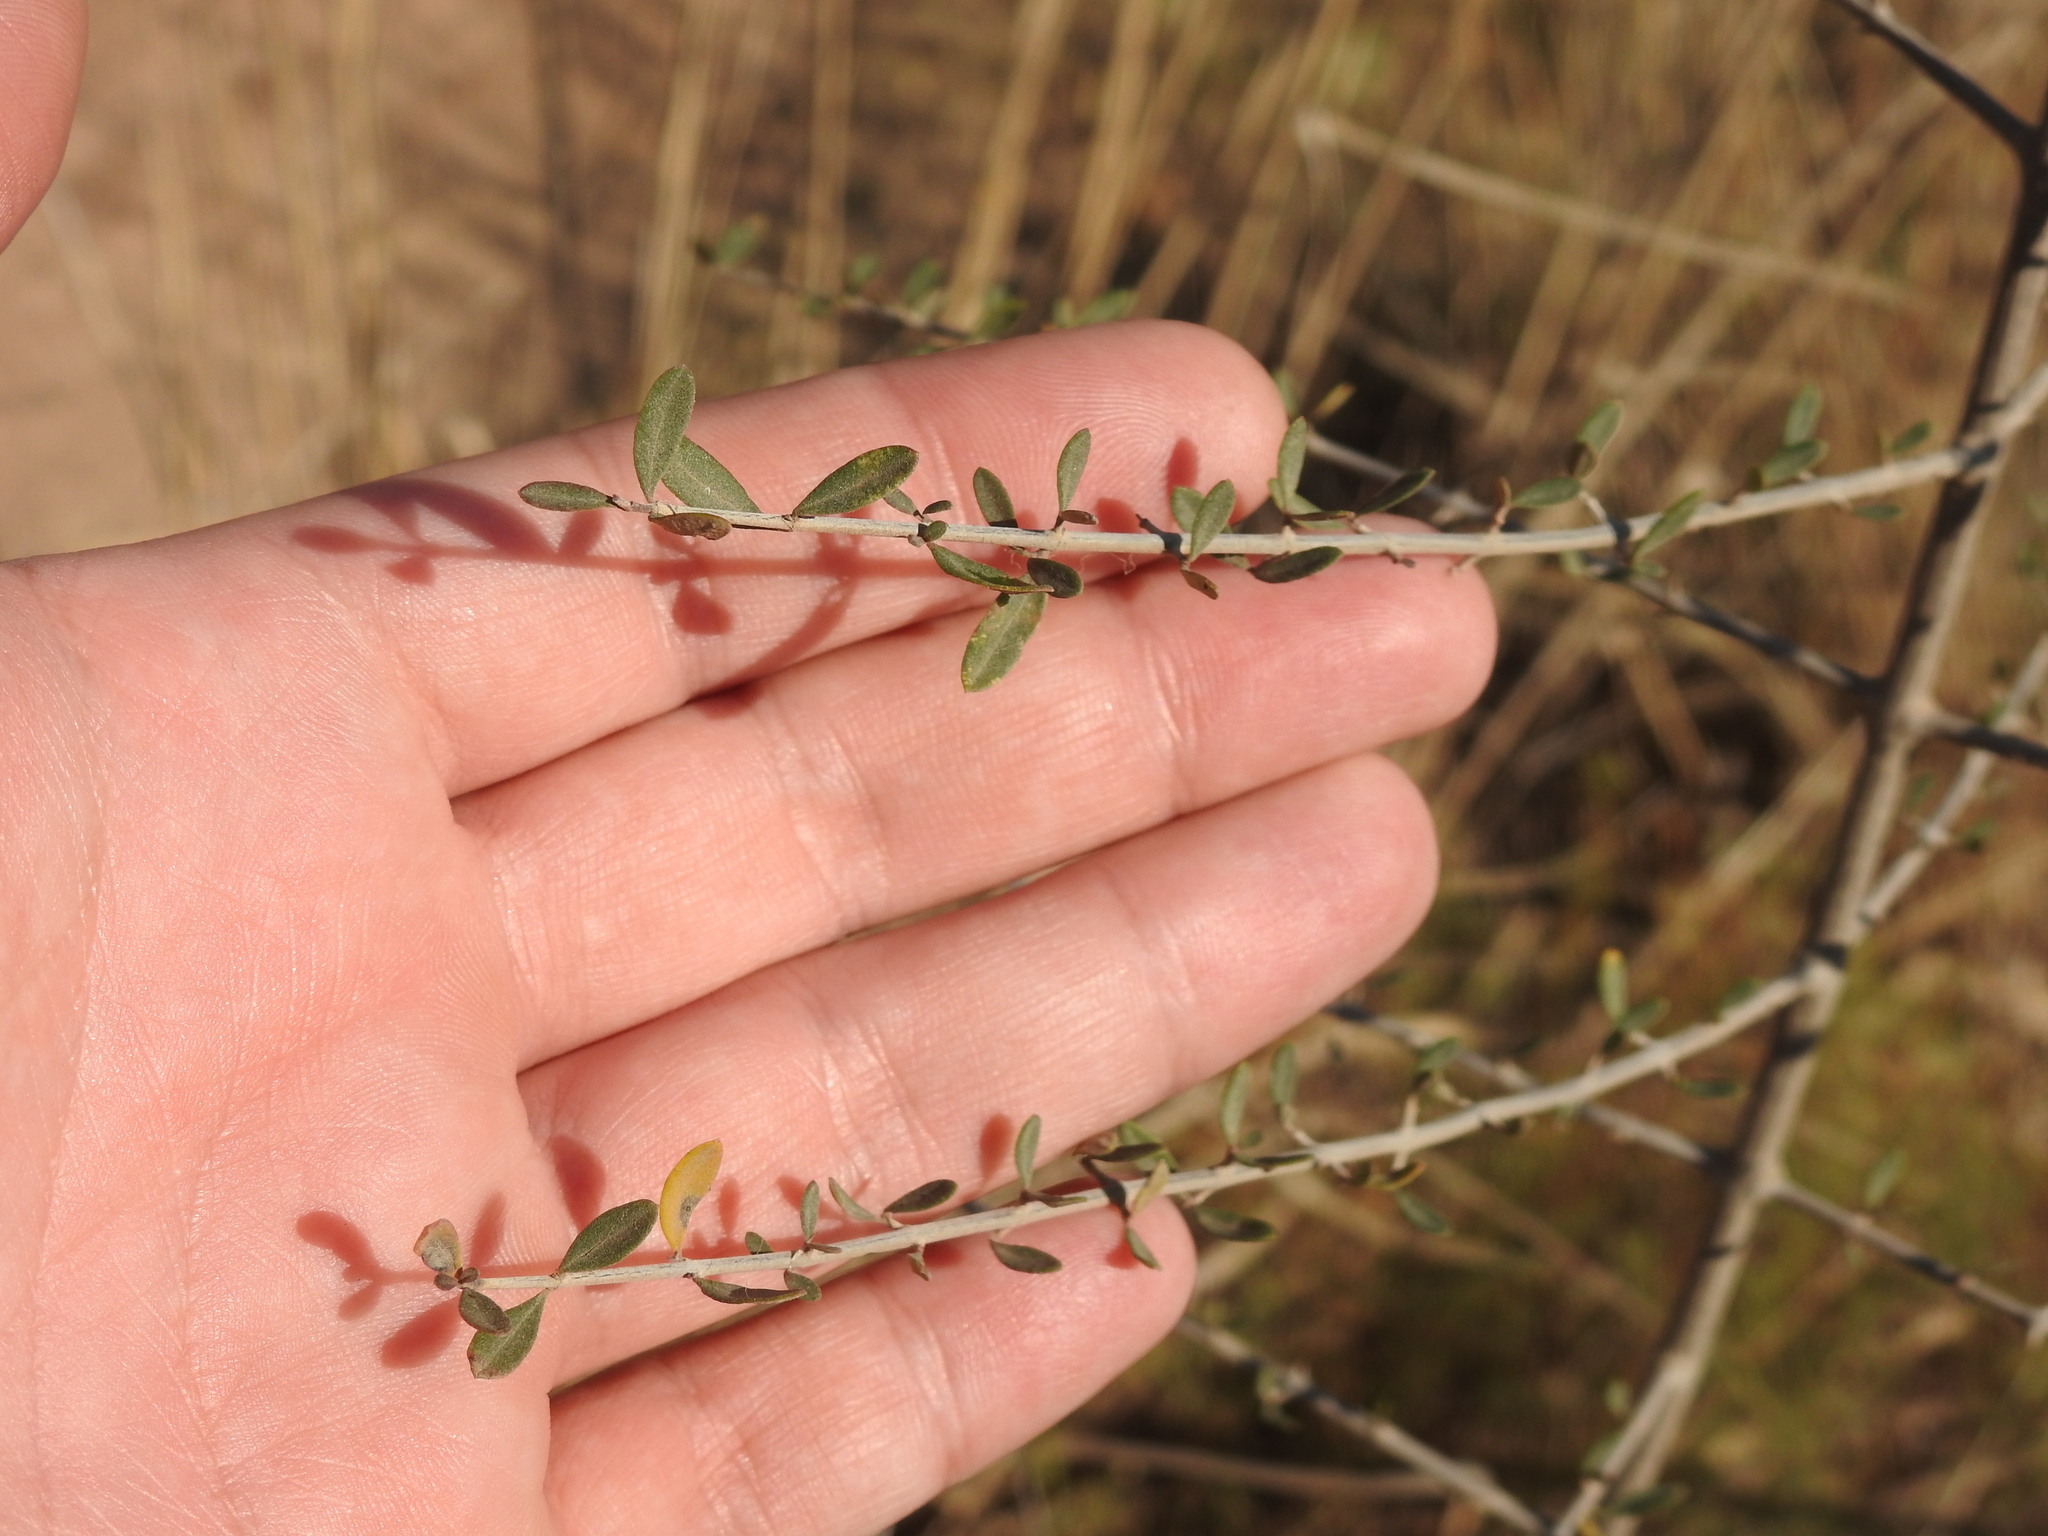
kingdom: Plantae
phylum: Tracheophyta
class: Magnoliopsida
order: Lamiales
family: Verbenaceae
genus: Aloysia
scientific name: Aloysia gratissima
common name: Common bee-brush
